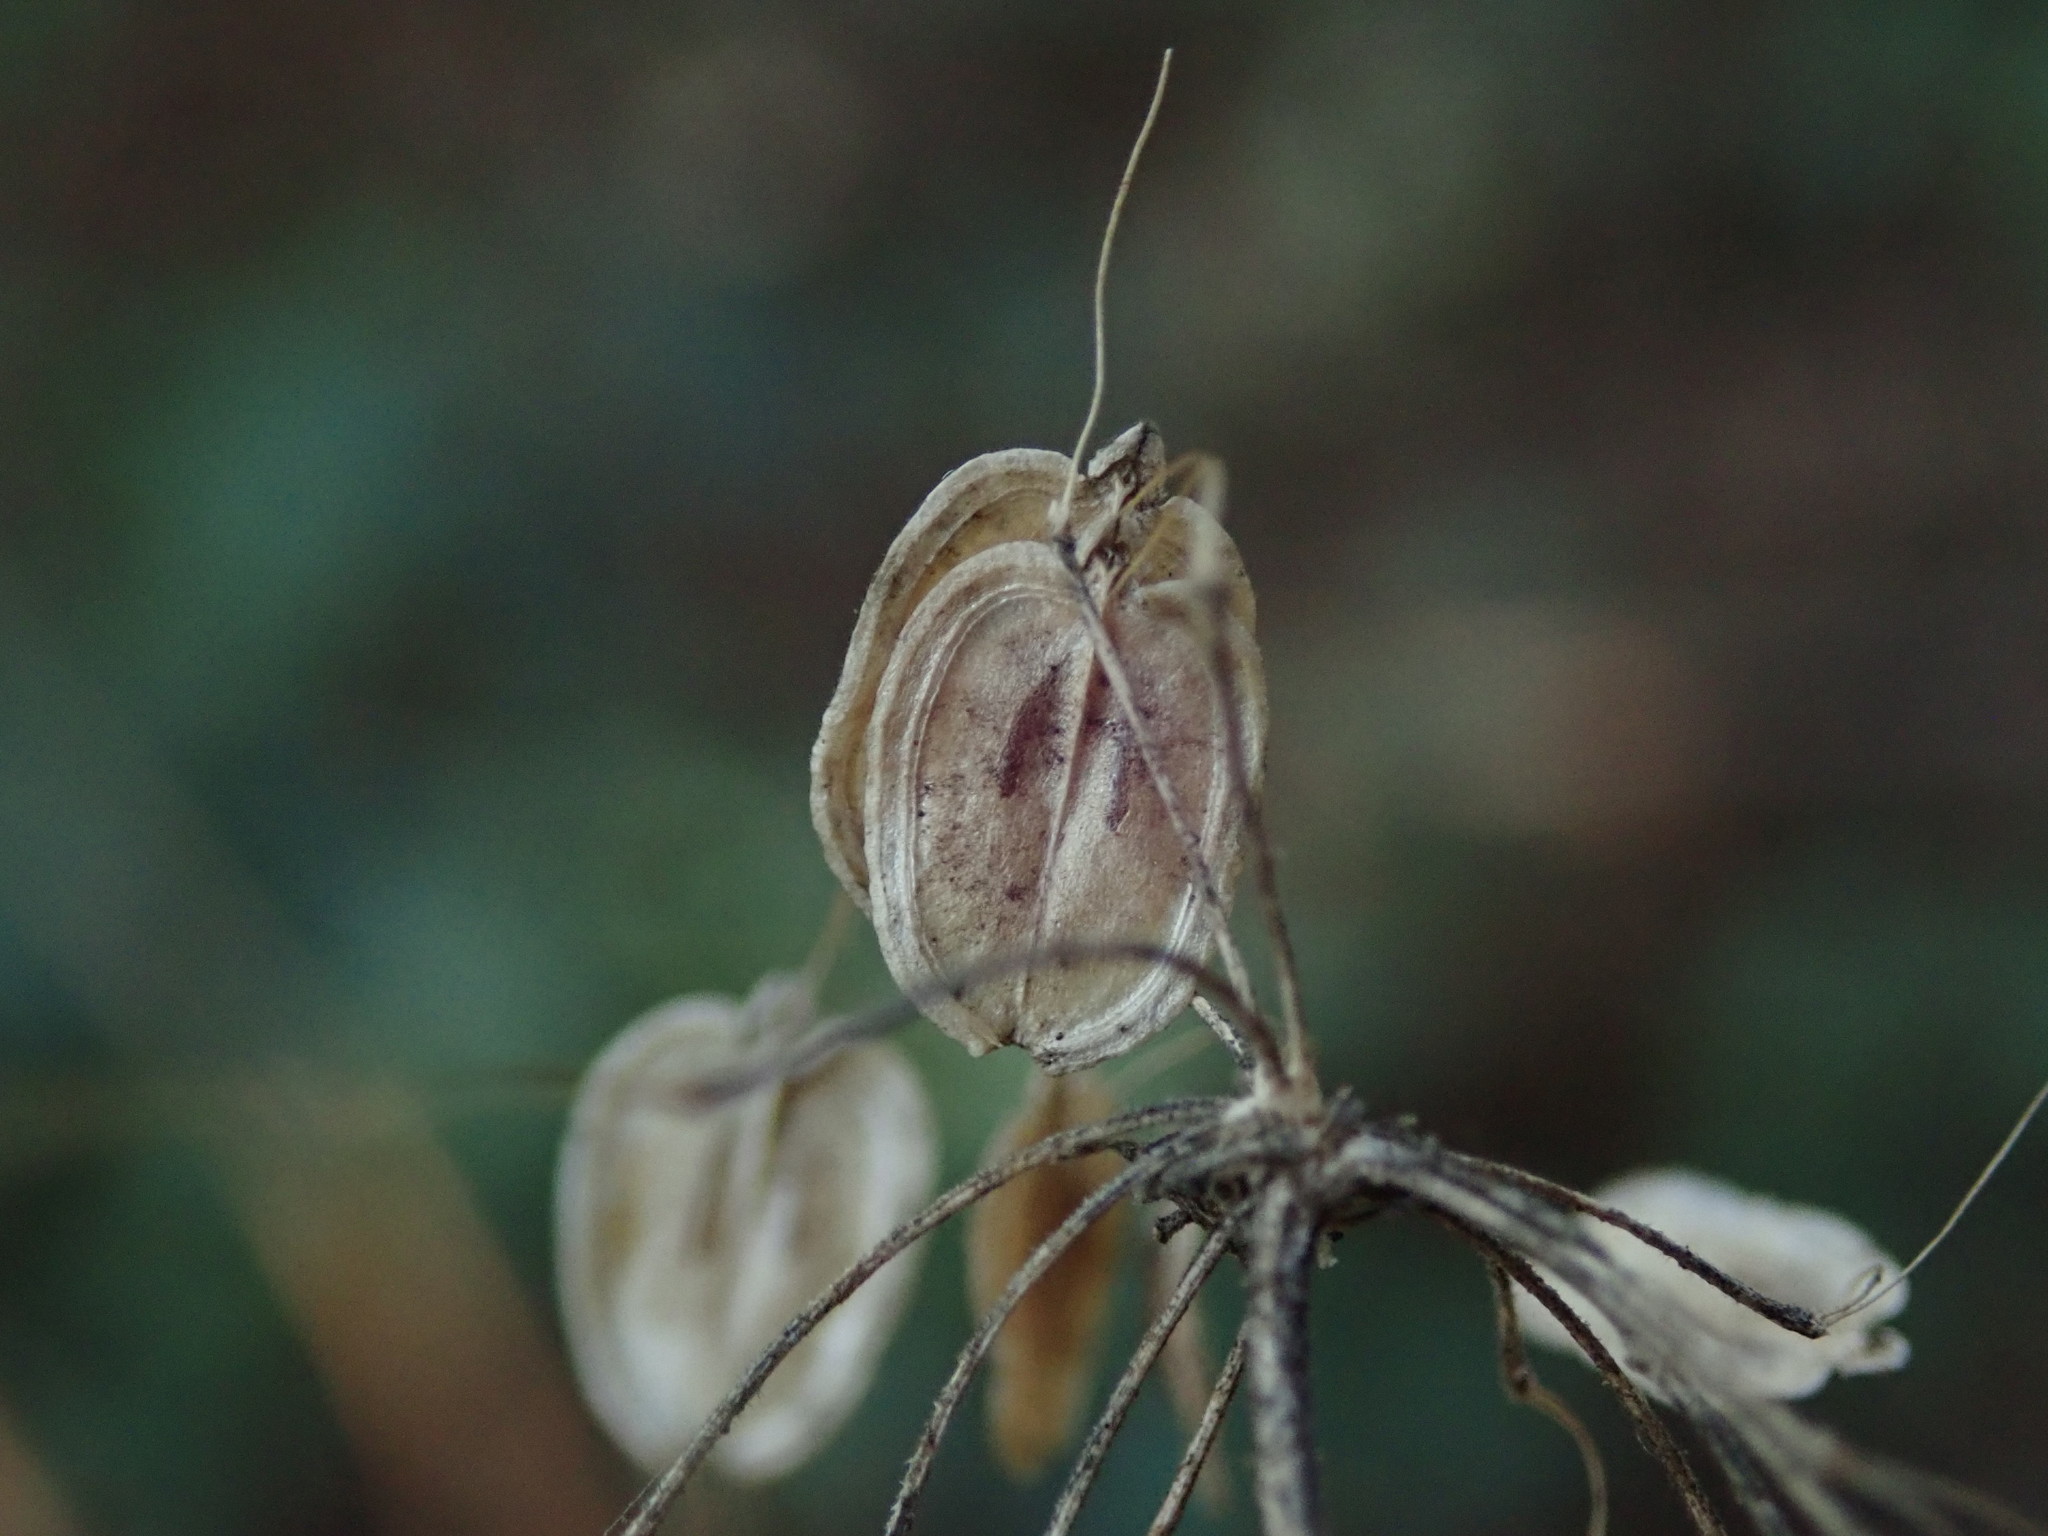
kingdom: Plantae
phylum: Tracheophyta
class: Magnoliopsida
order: Apiales
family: Apiaceae
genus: Heracleum
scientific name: Heracleum sphondylium
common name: Hogweed
